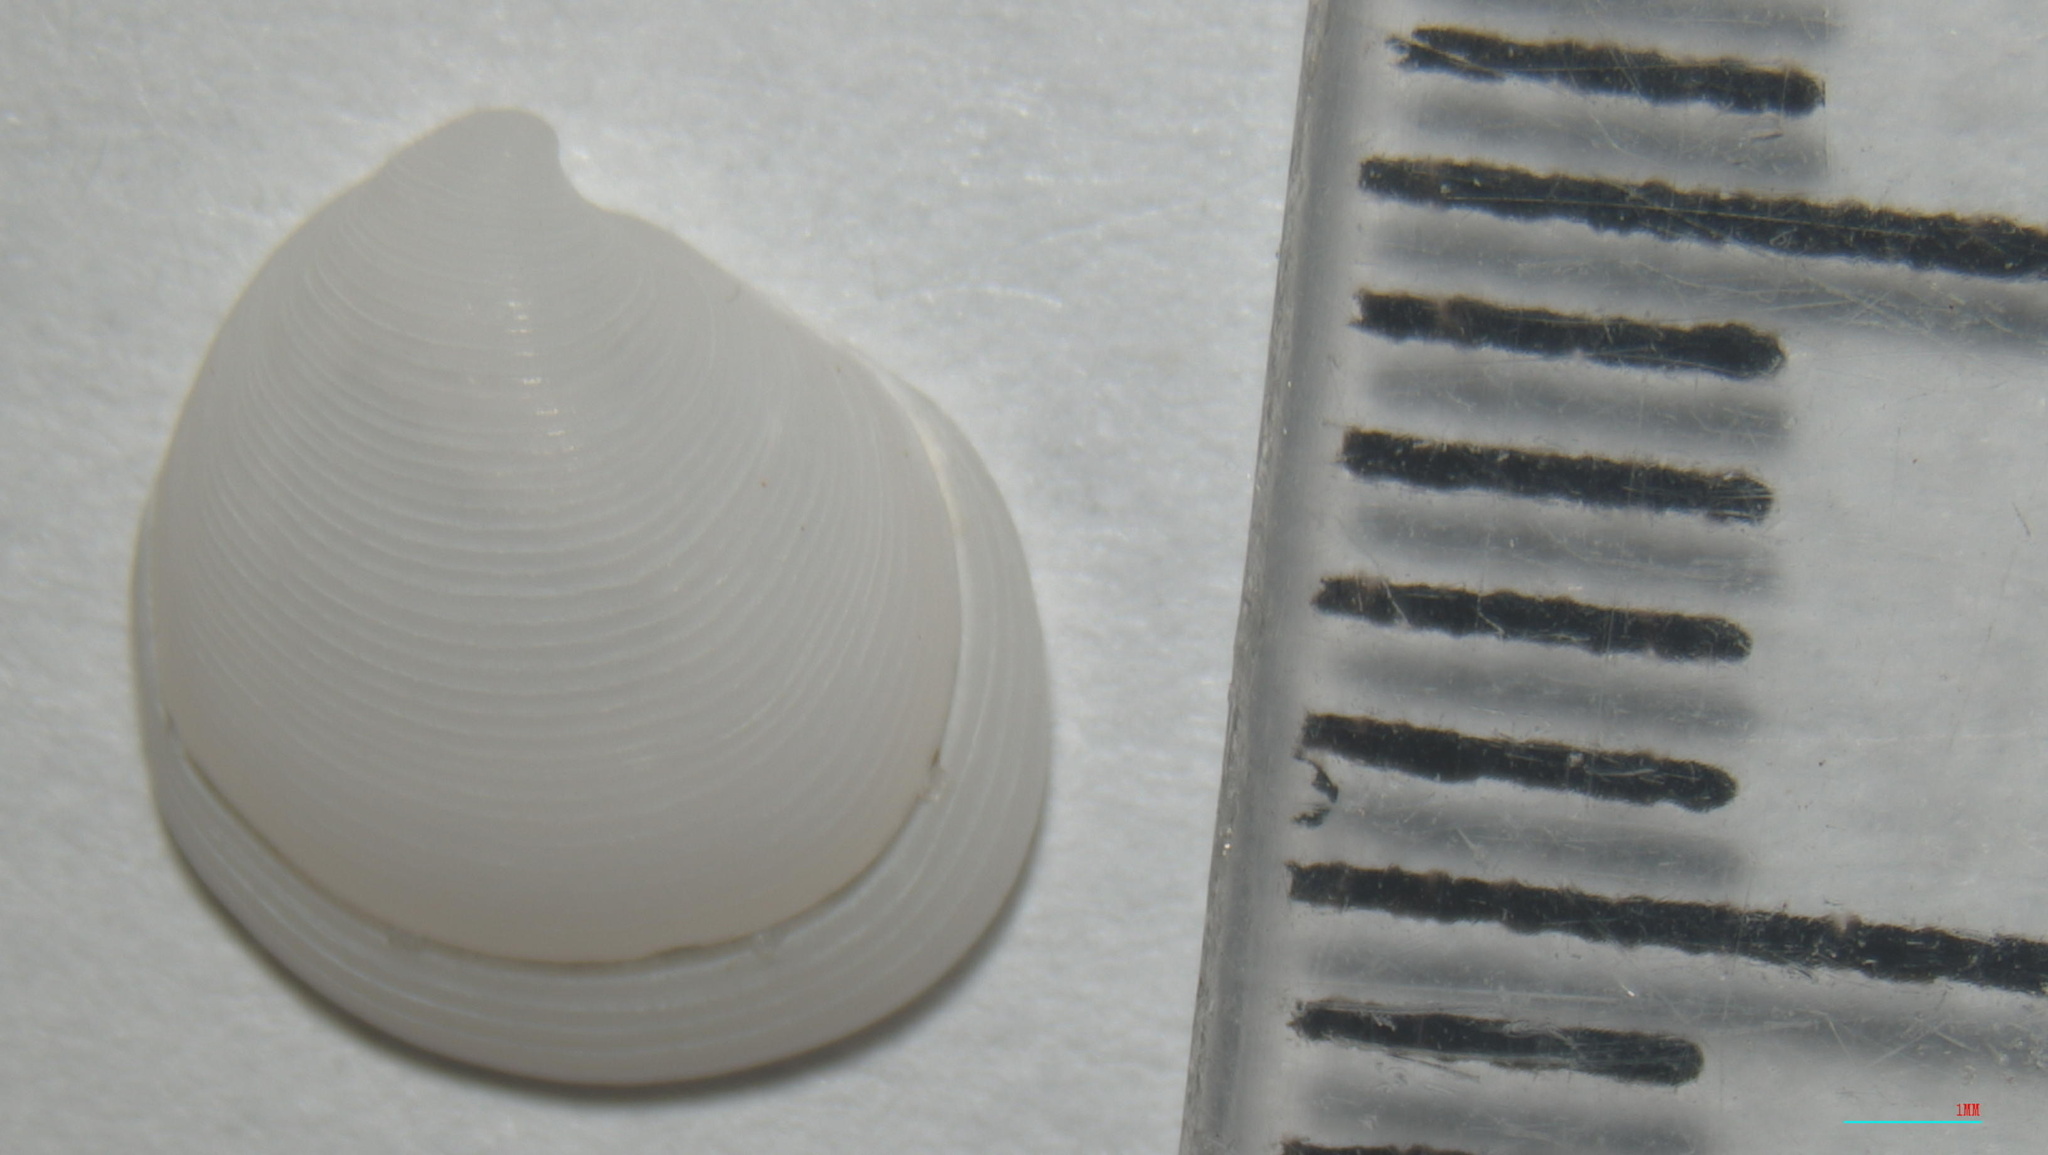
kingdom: Animalia
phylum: Mollusca
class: Bivalvia
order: Lucinida
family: Lucinidae
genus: Cavilinga
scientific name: Cavilinga blanda
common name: Three-ridge lucine
